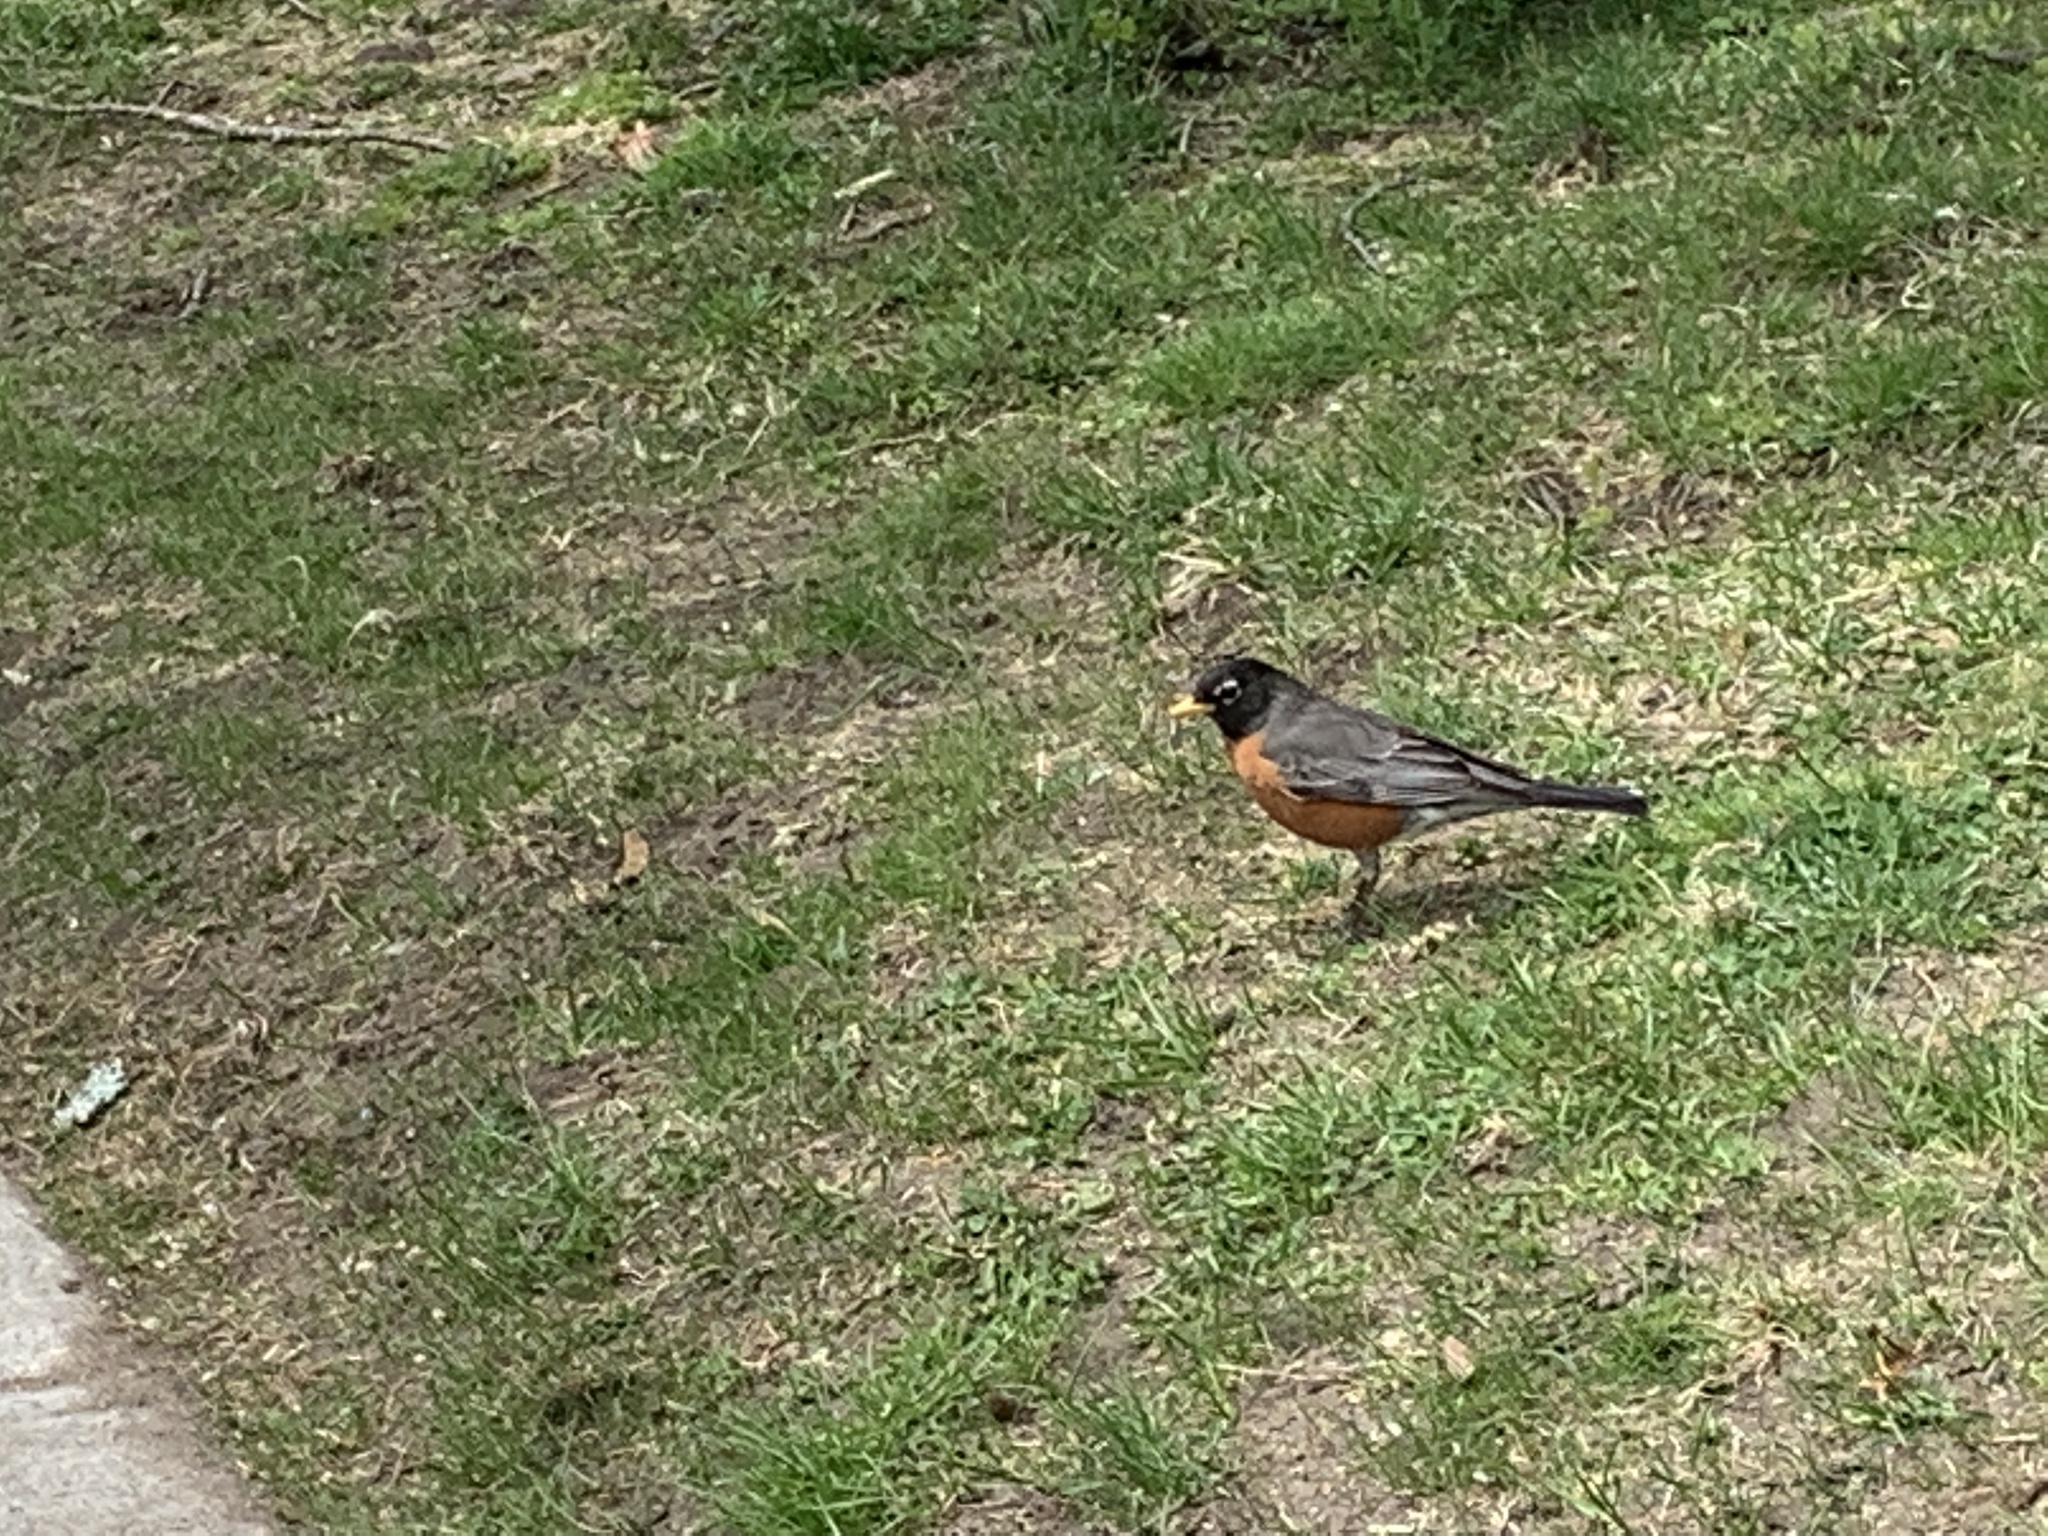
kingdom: Animalia
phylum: Chordata
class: Aves
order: Passeriformes
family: Turdidae
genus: Turdus
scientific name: Turdus migratorius
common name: American robin
